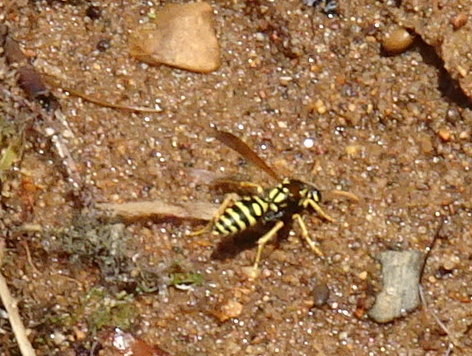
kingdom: Animalia
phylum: Arthropoda
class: Insecta
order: Hymenoptera
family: Eumenidae
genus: Polistes
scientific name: Polistes dominula
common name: Paper wasp
